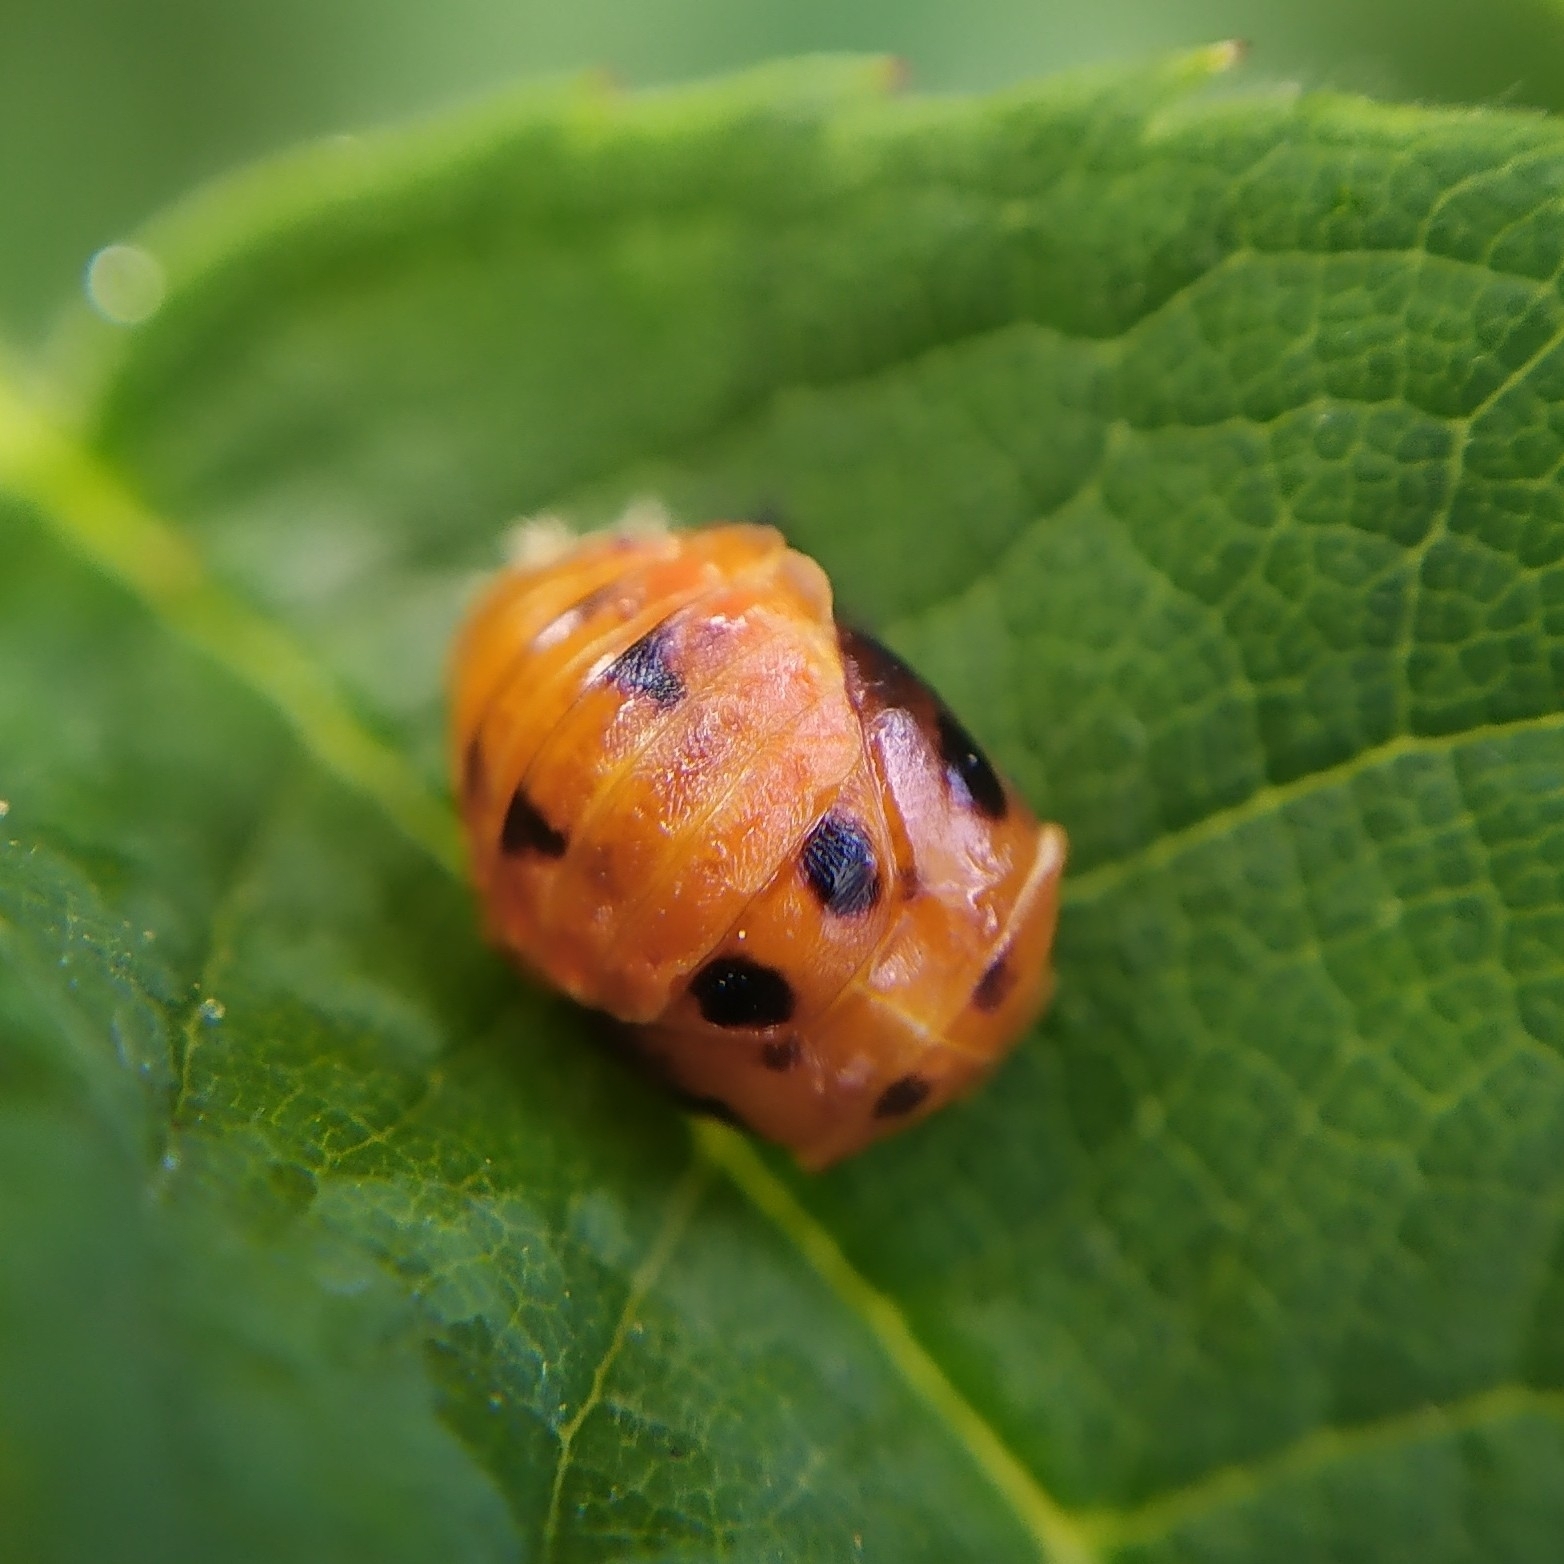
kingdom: Animalia
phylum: Arthropoda
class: Insecta
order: Coleoptera
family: Coccinellidae
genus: Harmonia
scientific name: Harmonia axyridis
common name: Harlequin ladybird
